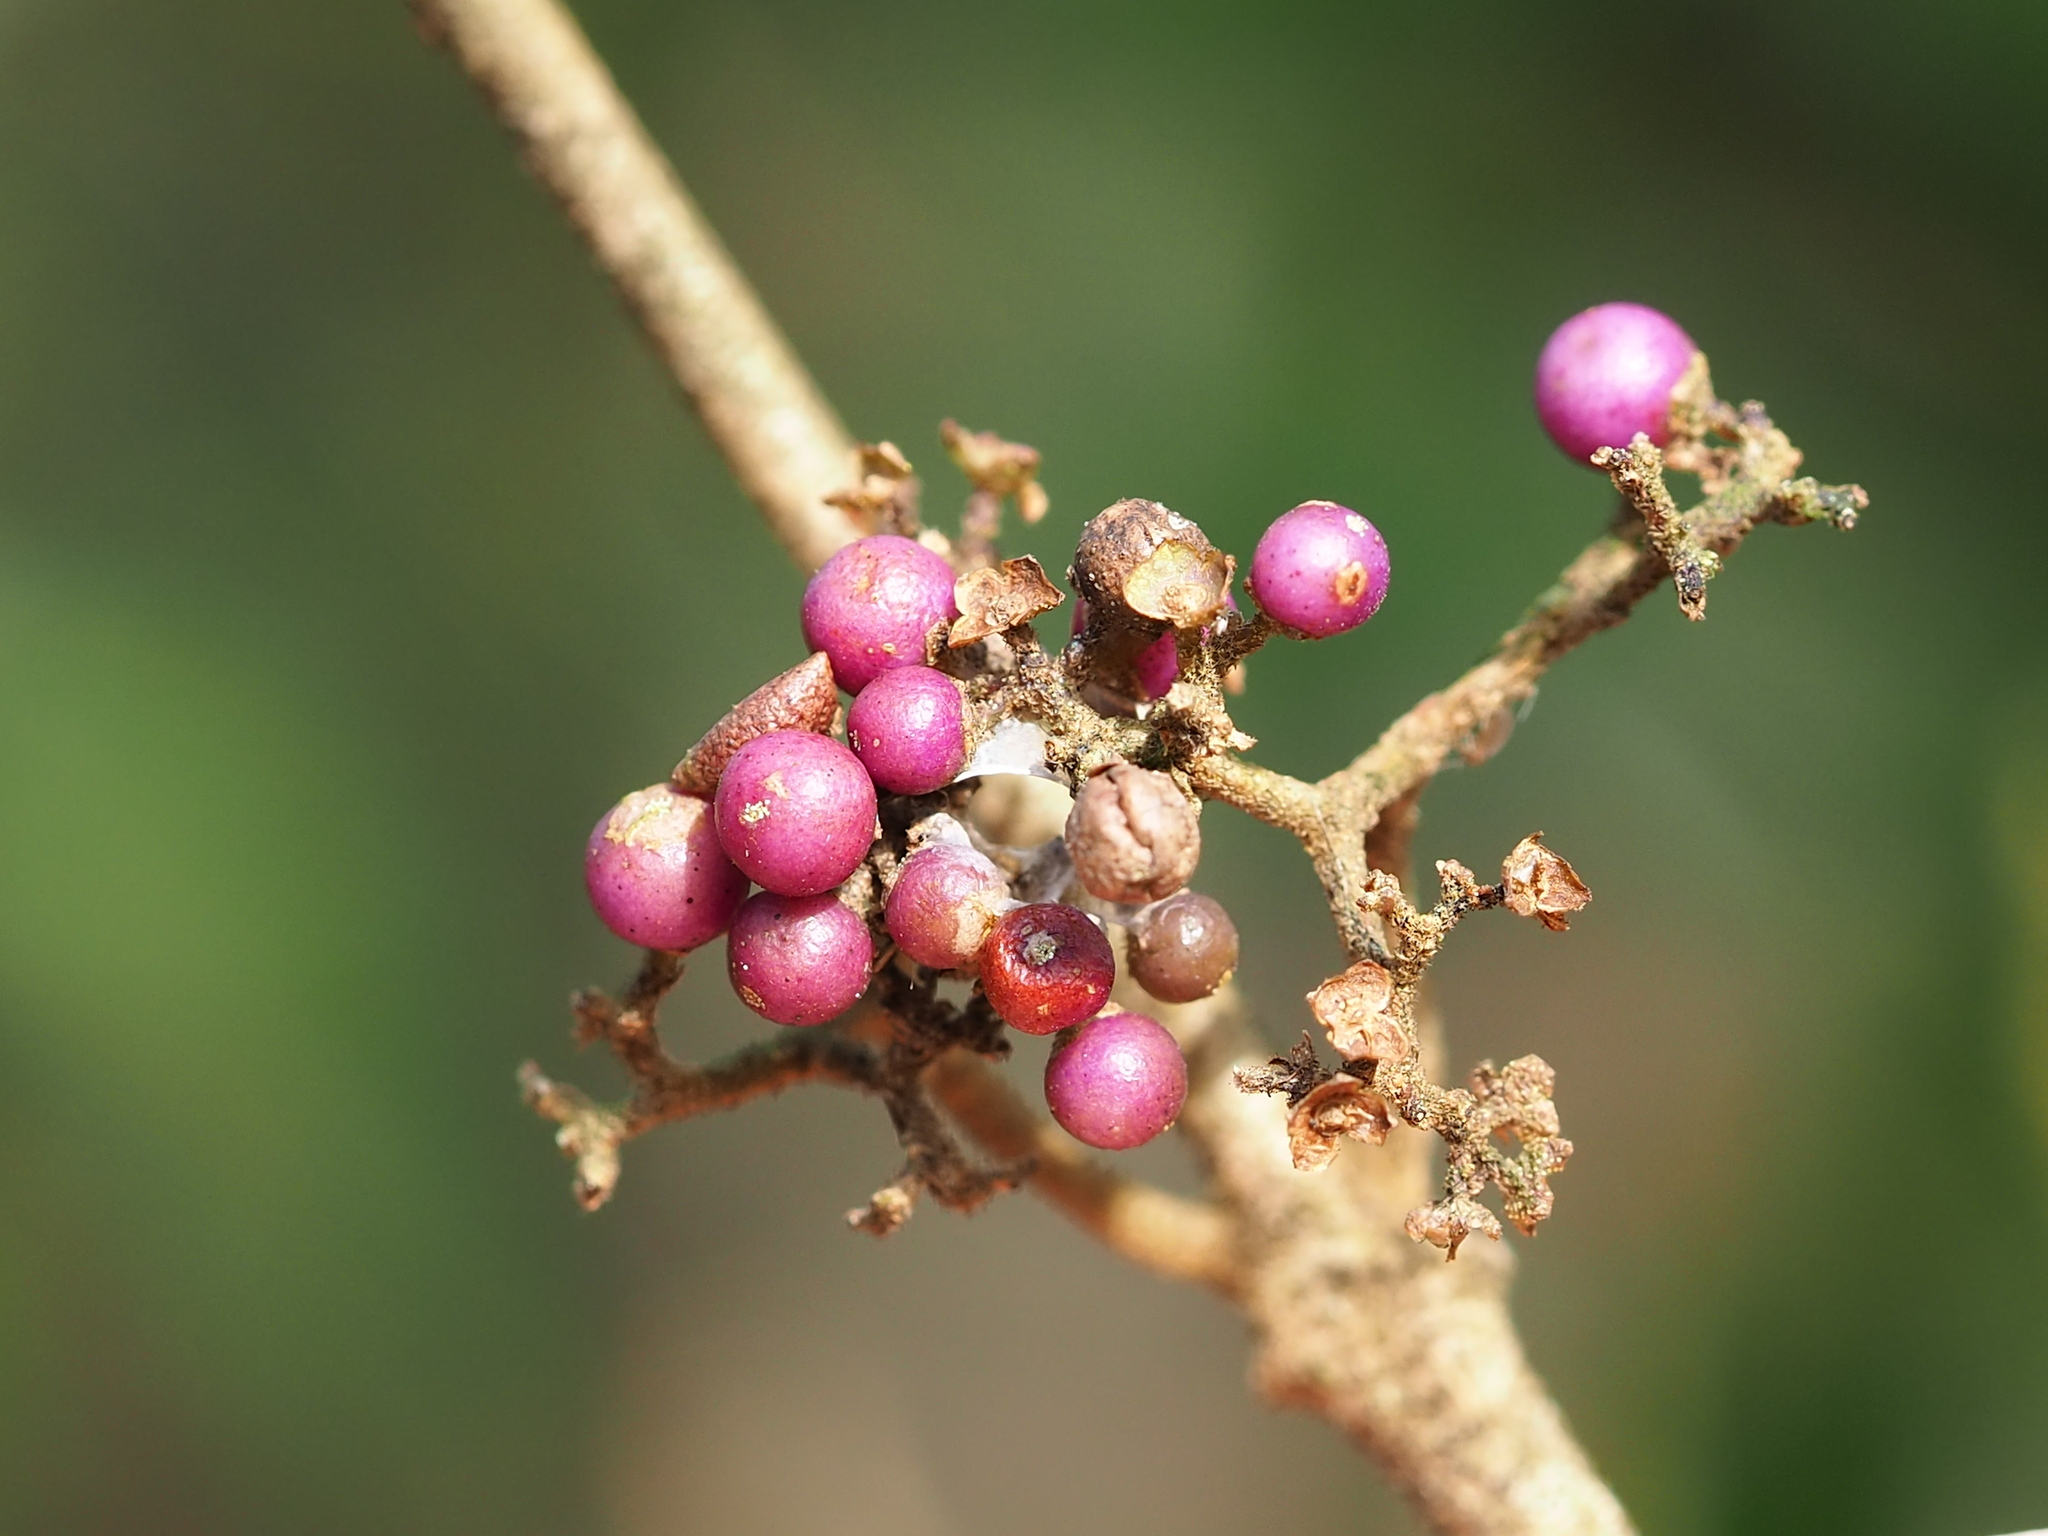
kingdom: Plantae
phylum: Tracheophyta
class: Magnoliopsida
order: Lamiales
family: Lamiaceae
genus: Callicarpa
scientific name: Callicarpa pedunculata
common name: Velvetleaf
